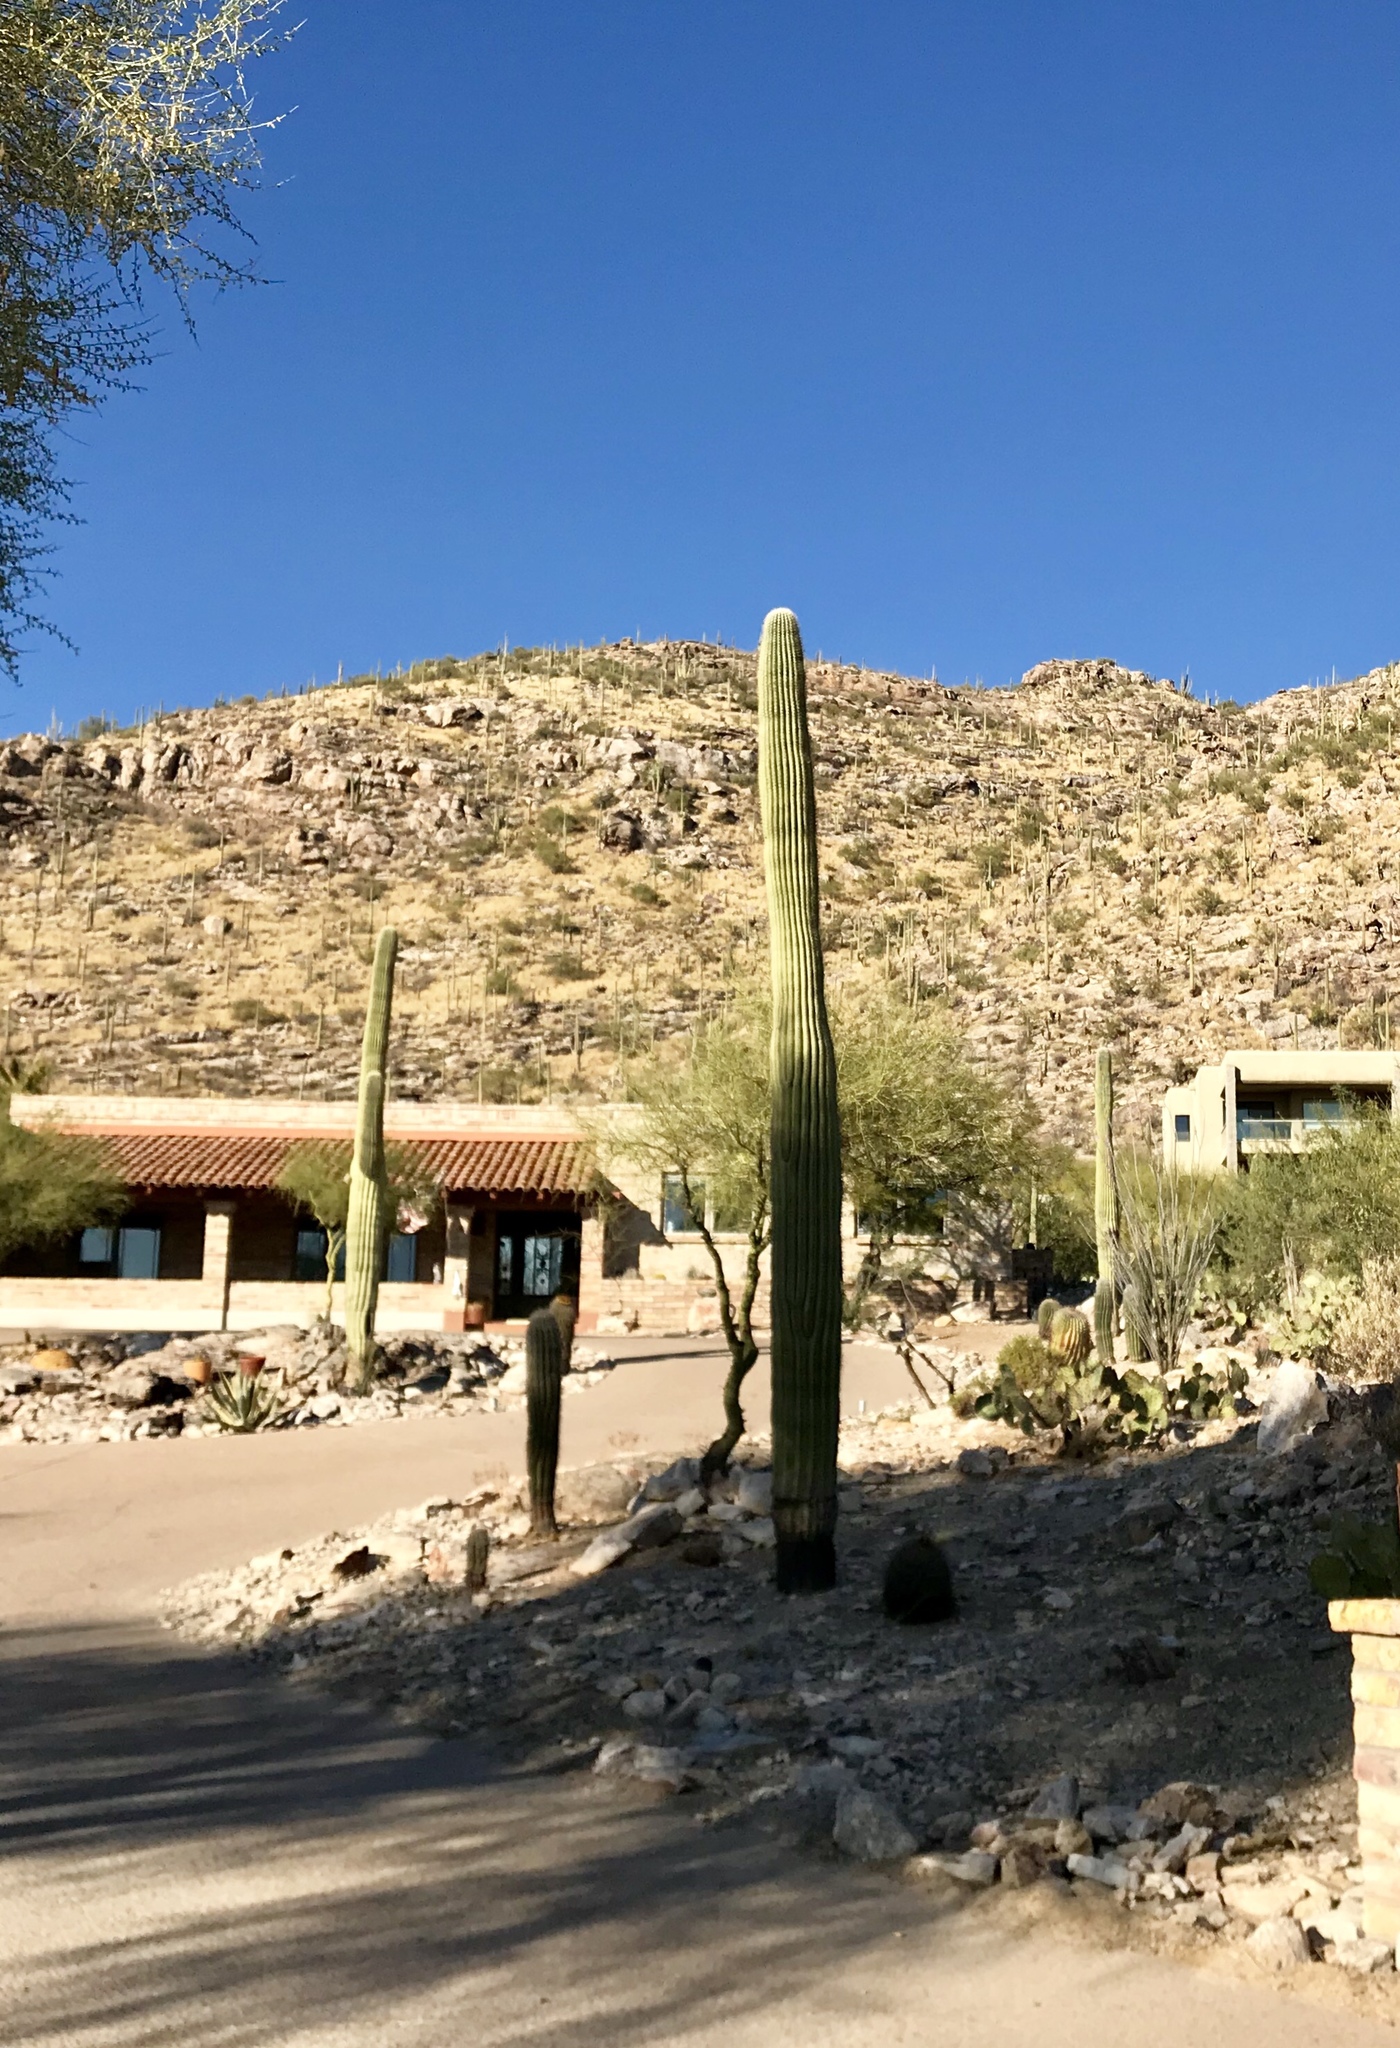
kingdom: Plantae
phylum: Tracheophyta
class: Magnoliopsida
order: Caryophyllales
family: Cactaceae
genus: Carnegiea
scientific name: Carnegiea gigantea
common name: Saguaro
